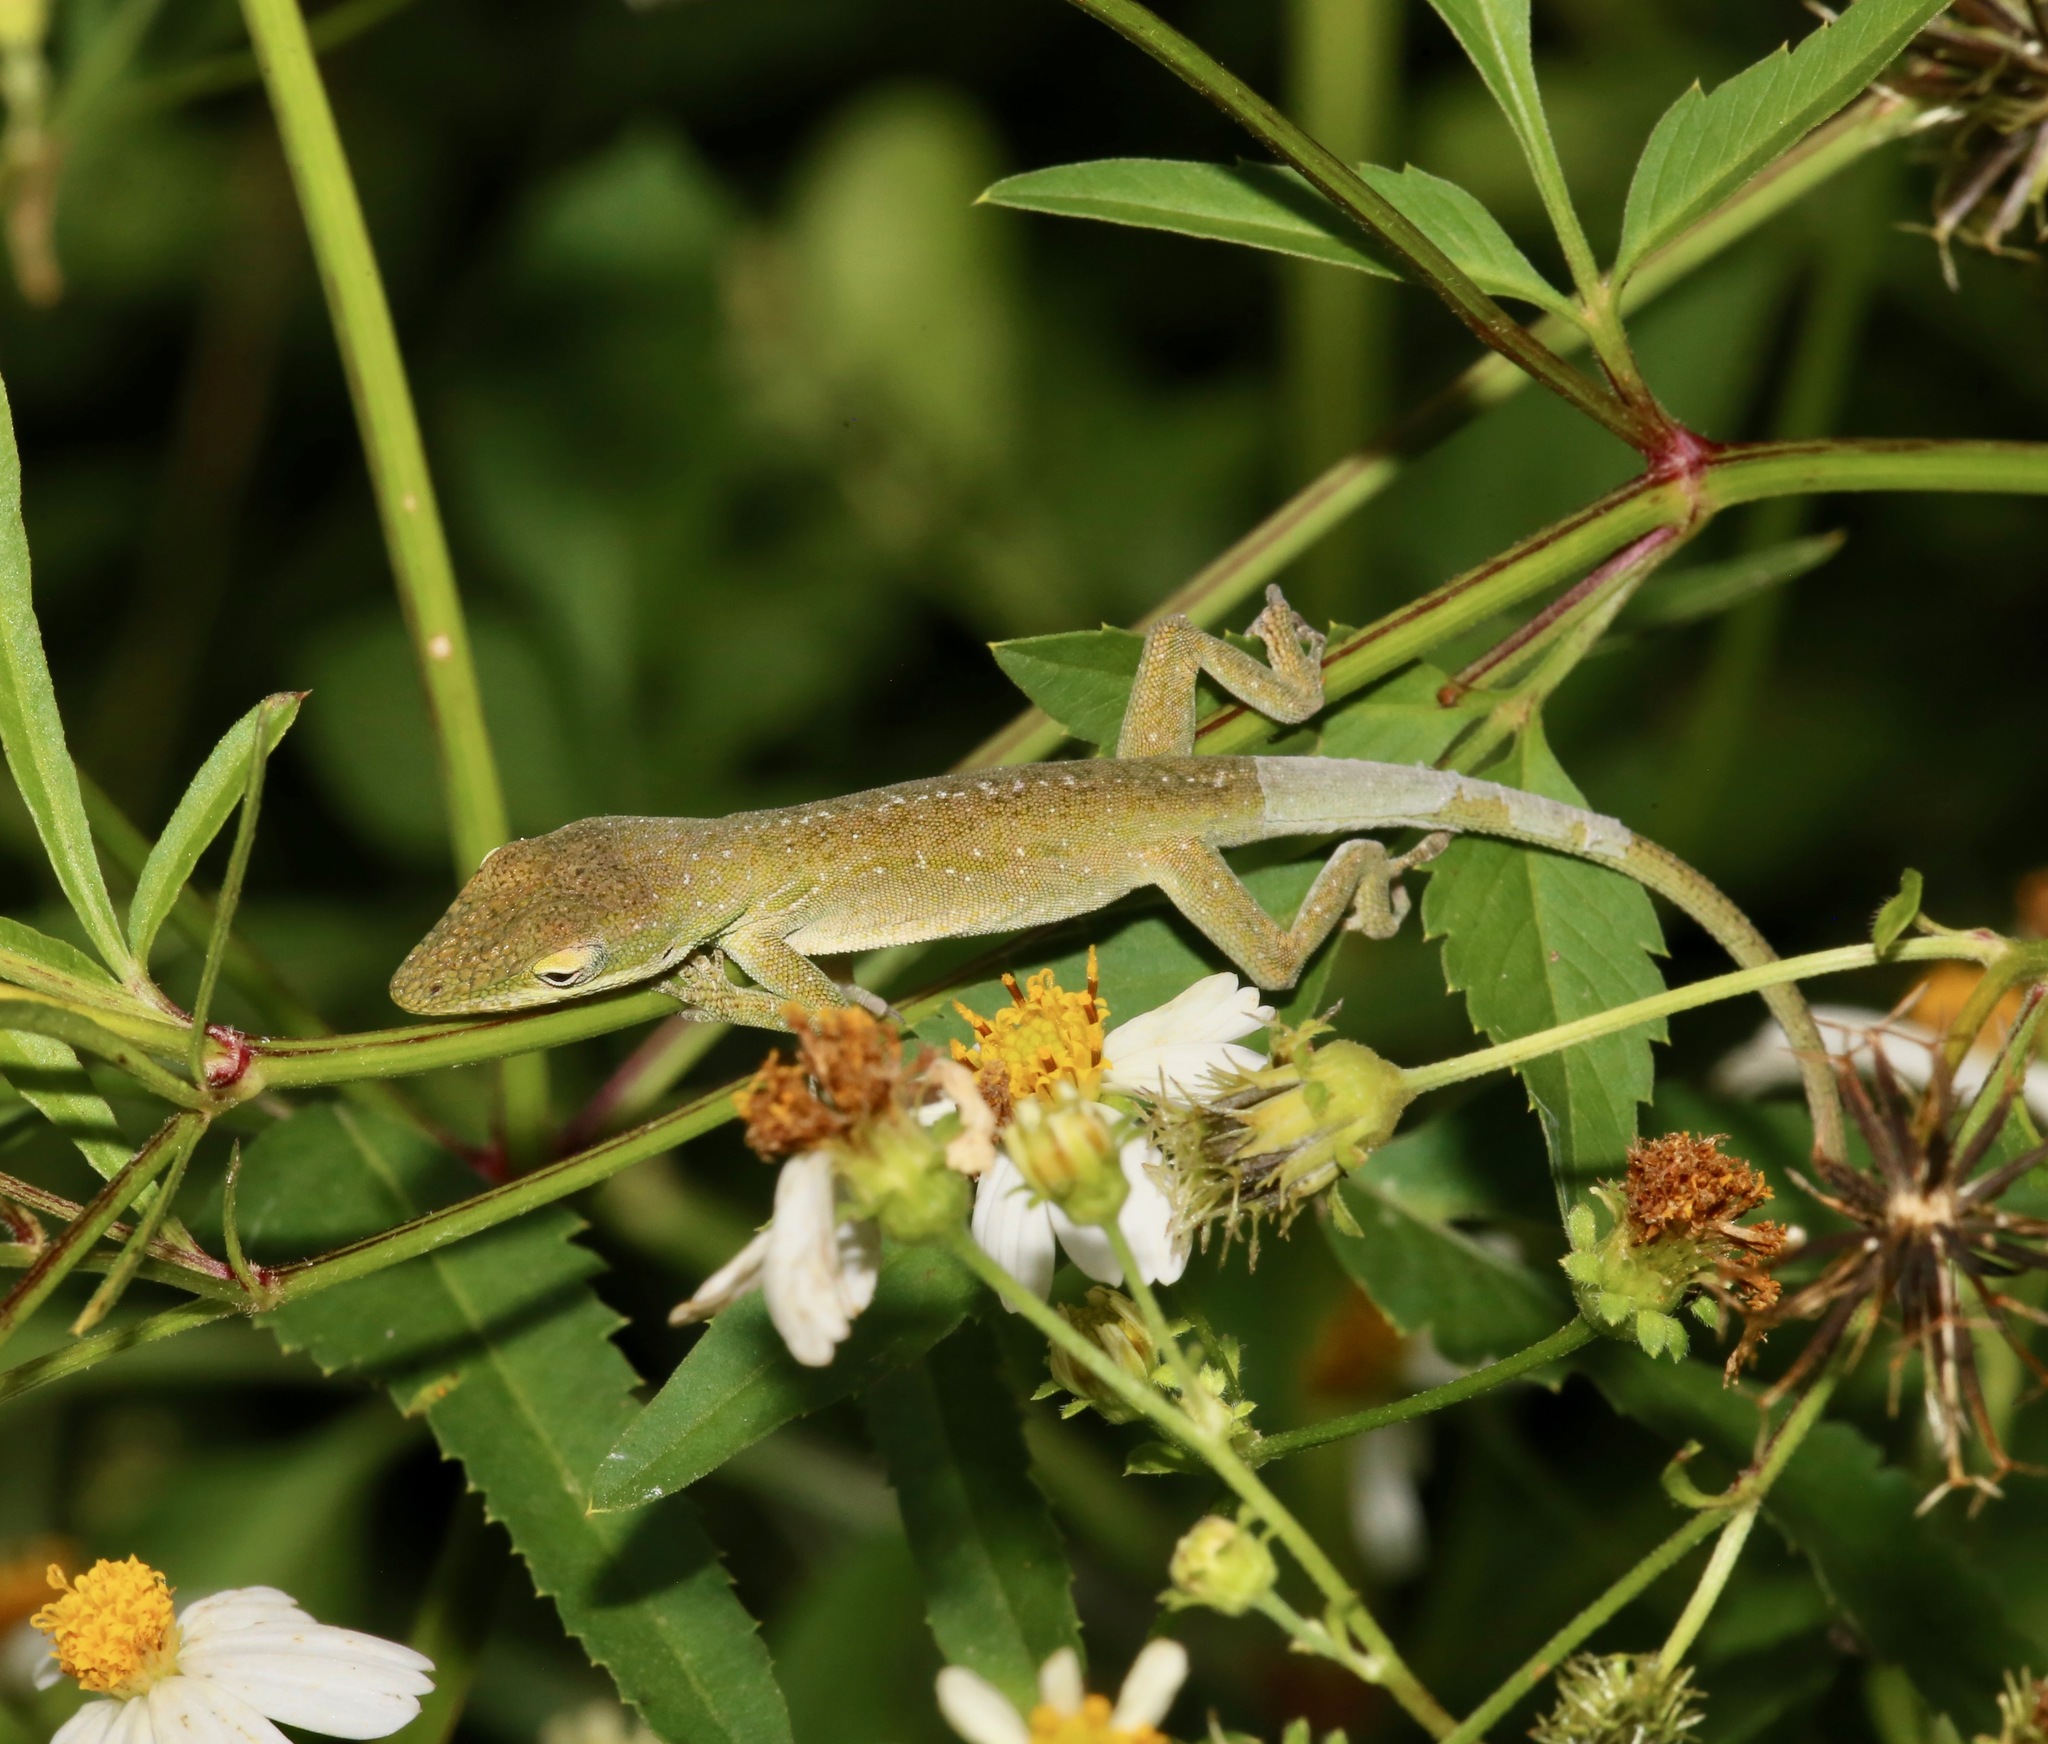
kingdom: Animalia
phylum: Chordata
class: Squamata
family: Dactyloidae
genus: Anolis
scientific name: Anolis carolinensis
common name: Green anole
